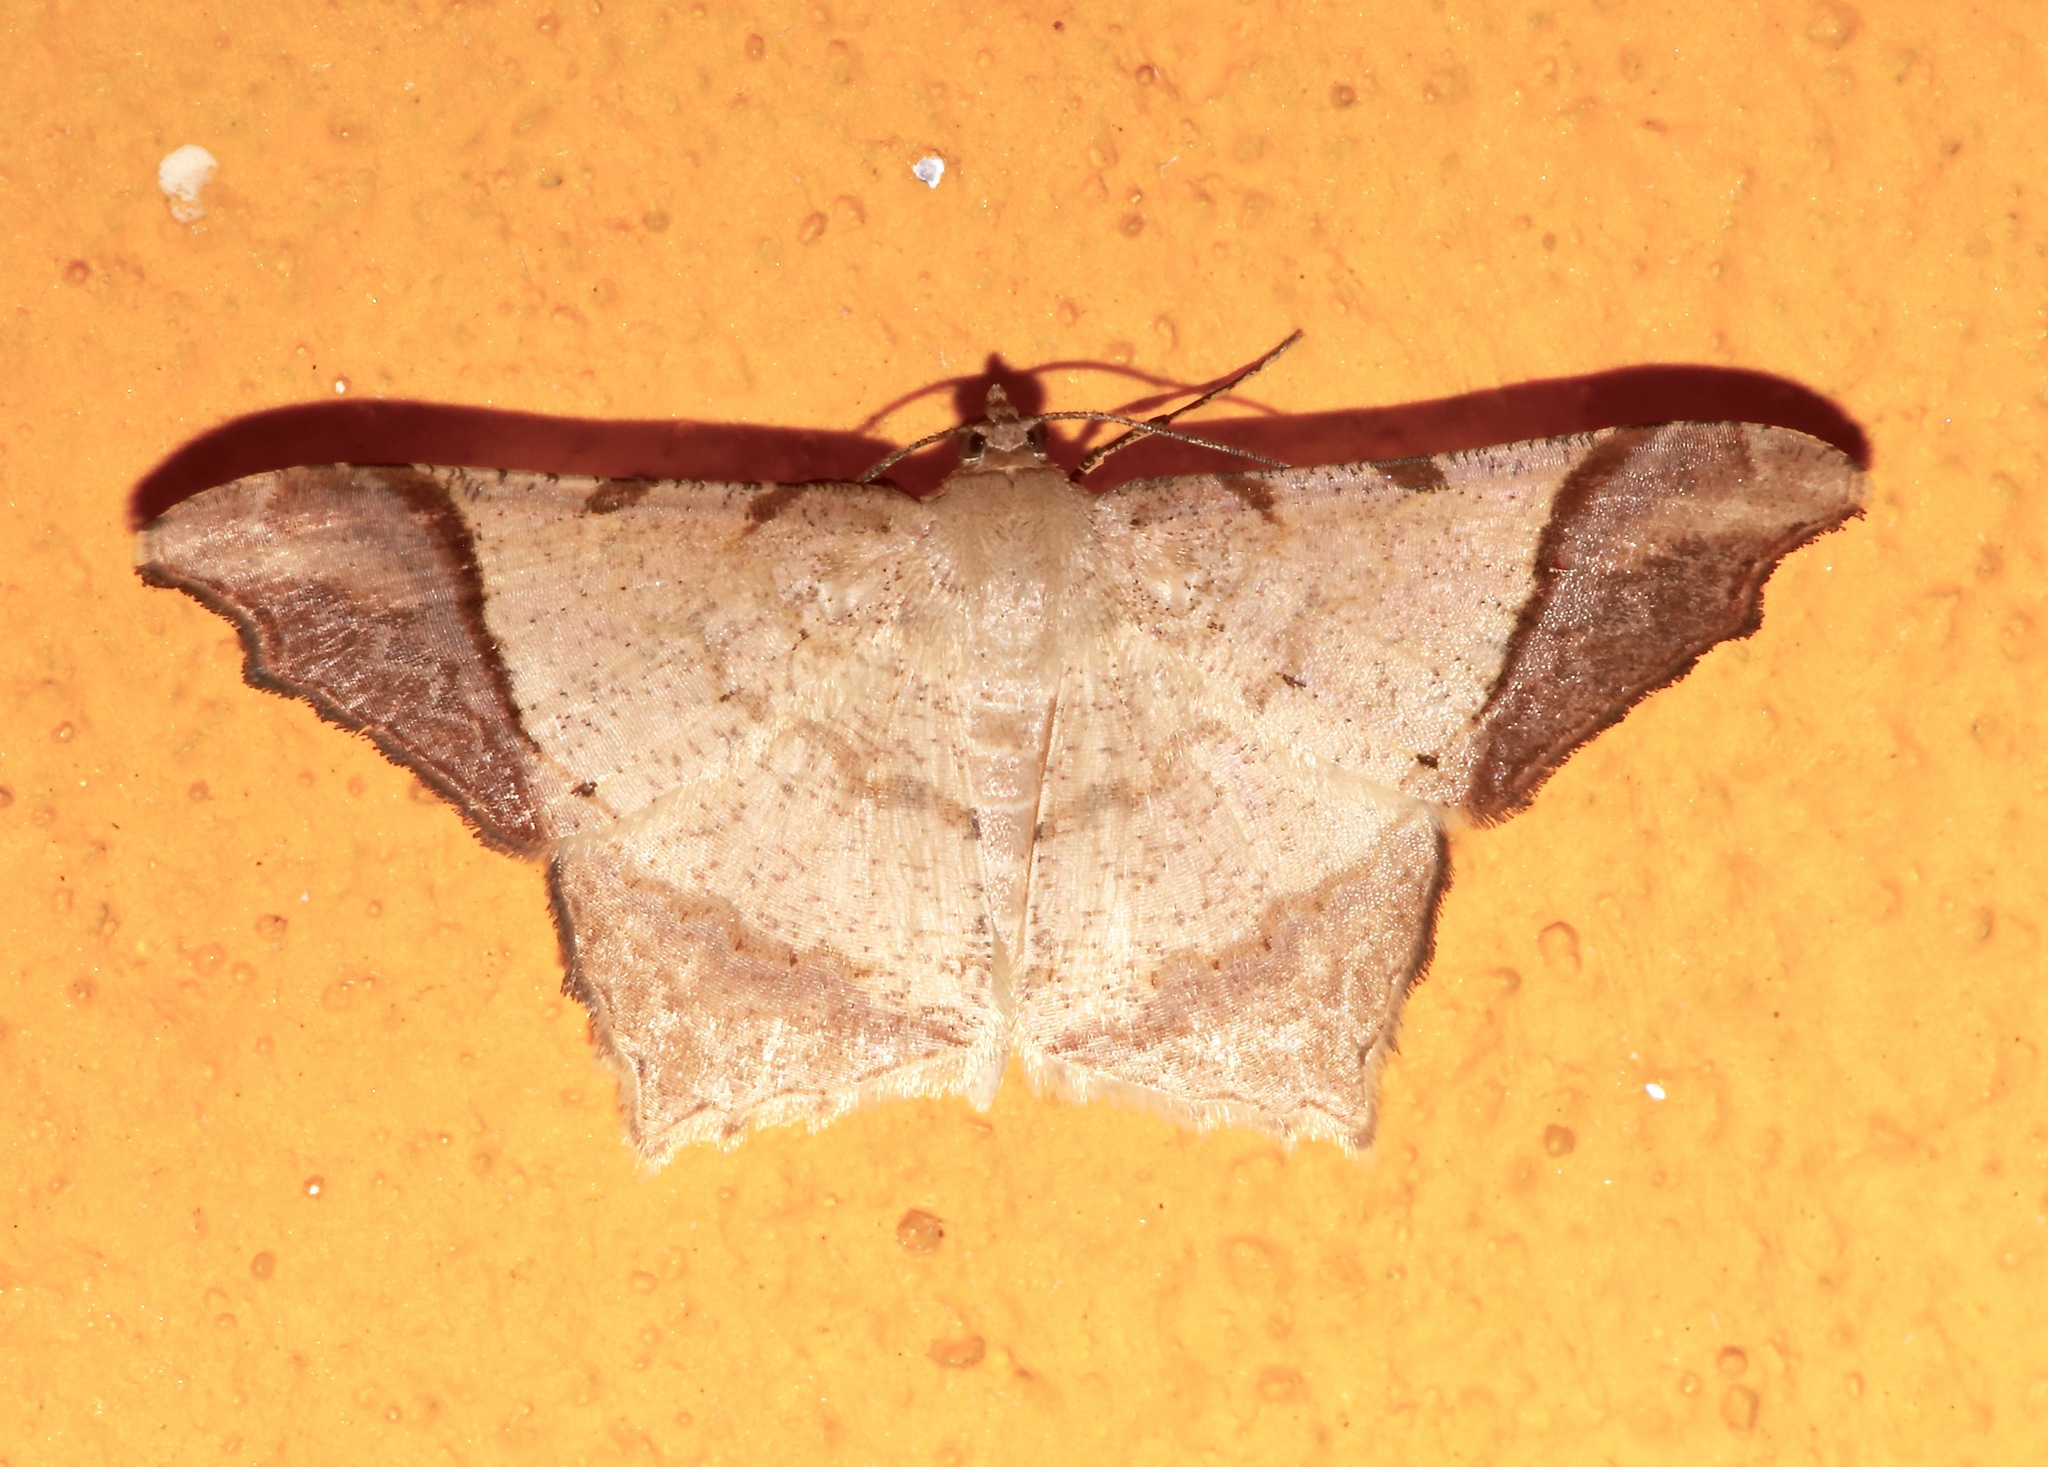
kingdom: Animalia
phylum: Arthropoda
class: Insecta
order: Lepidoptera
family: Geometridae
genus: Macaria
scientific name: Macaria gambarina
